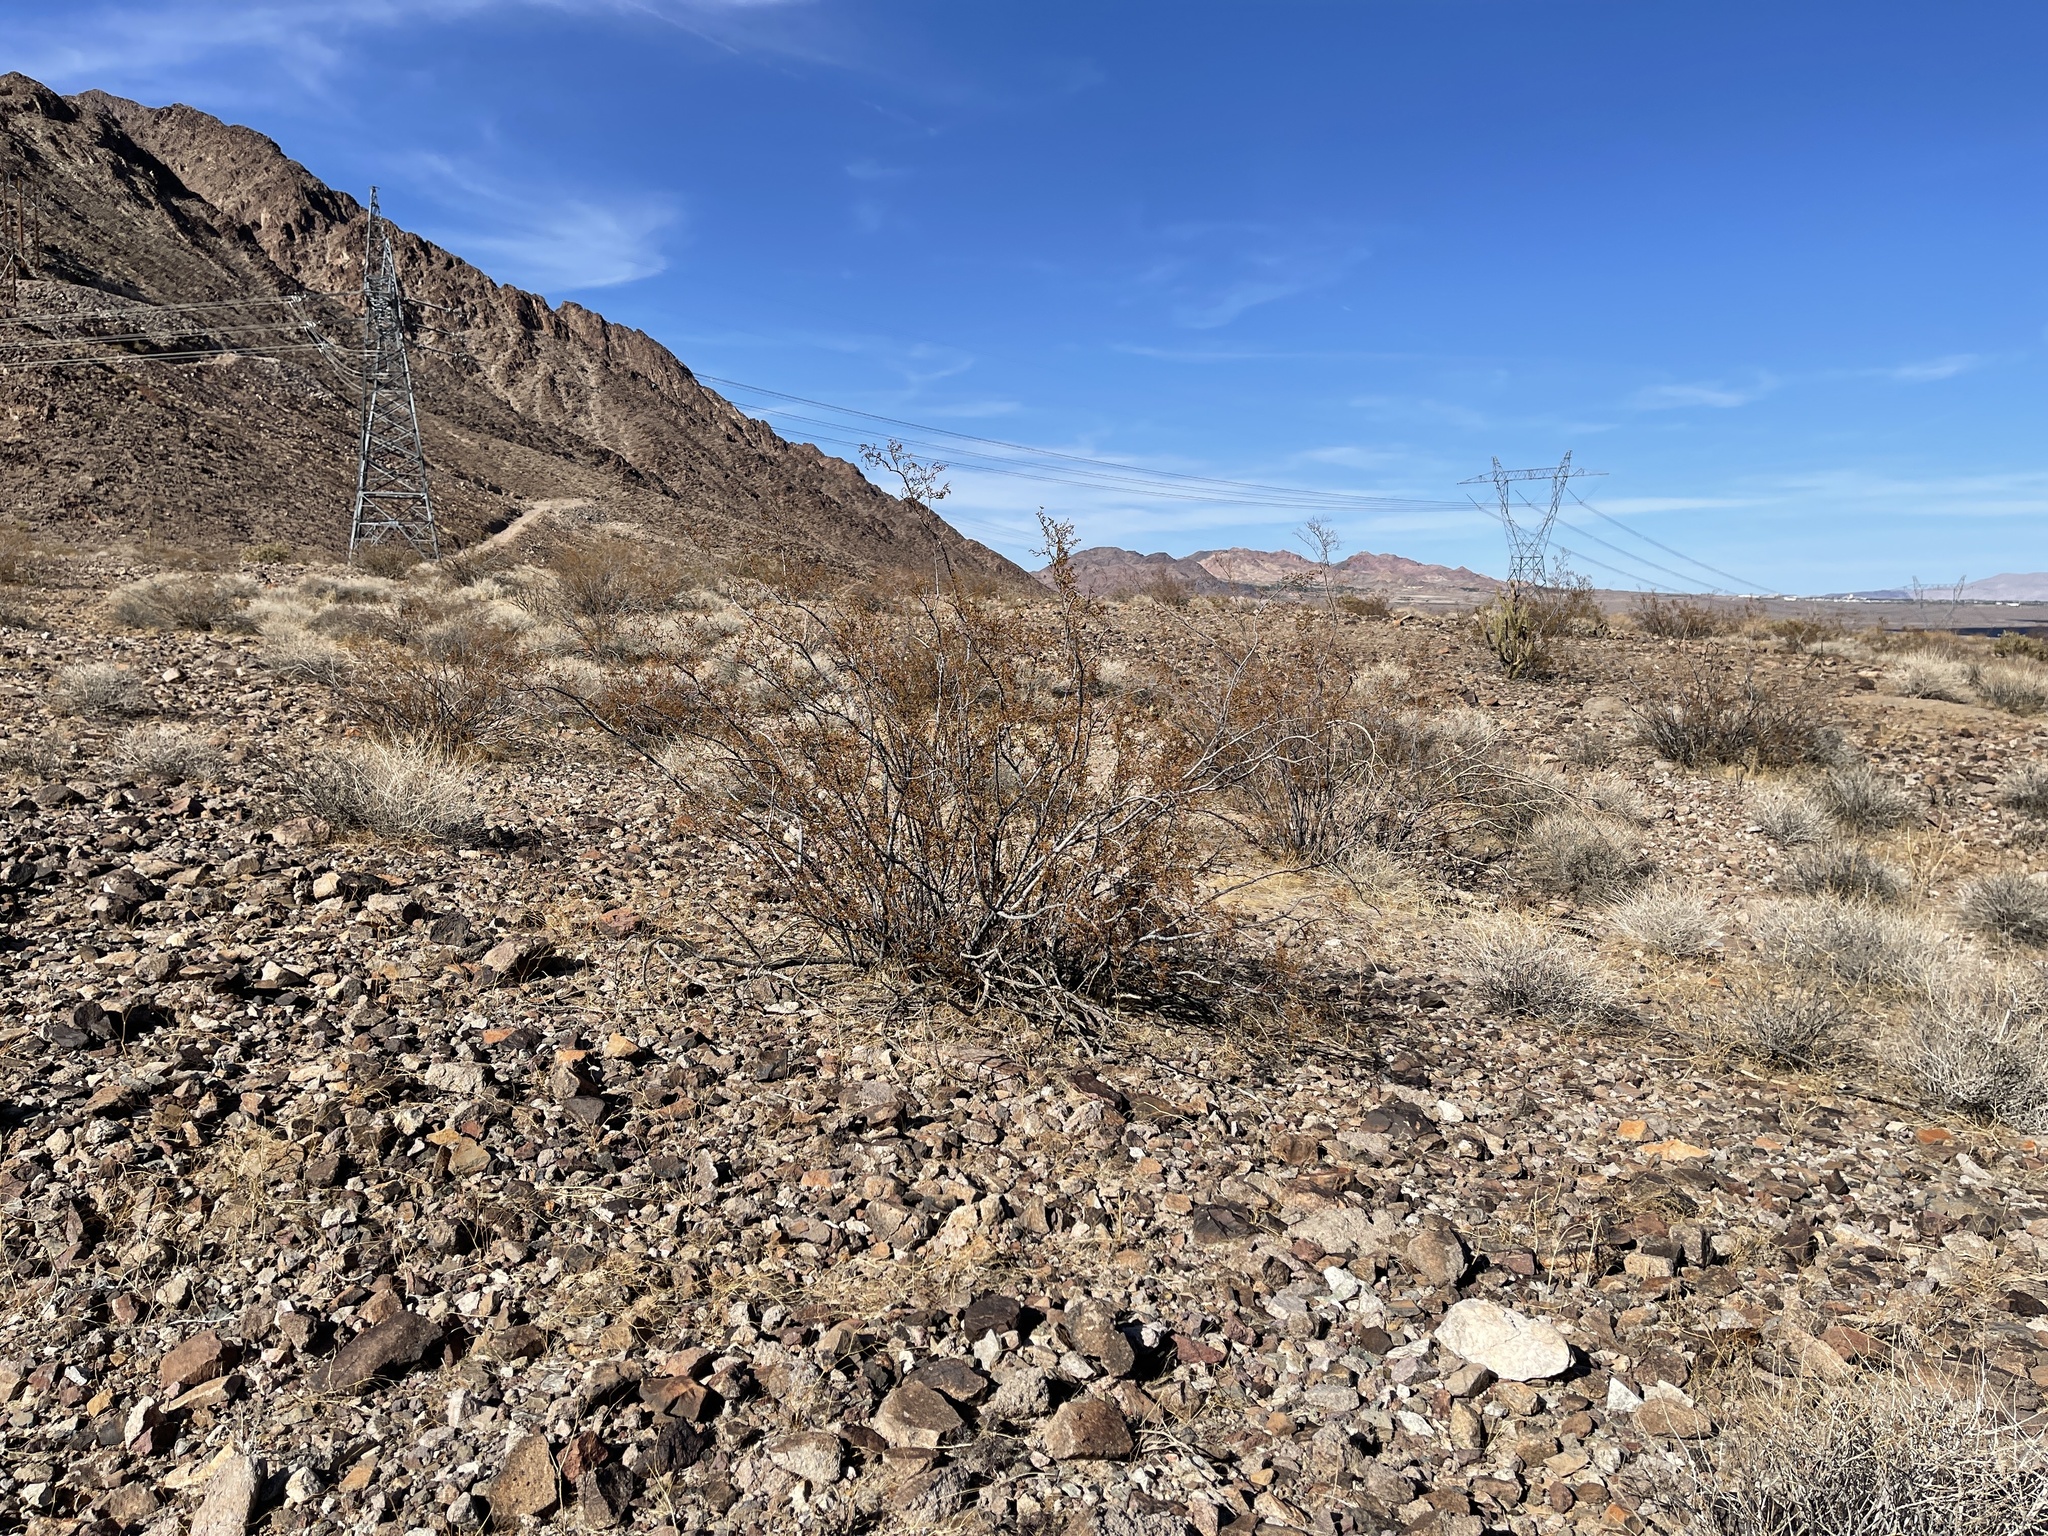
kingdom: Plantae
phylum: Tracheophyta
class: Magnoliopsida
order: Zygophyllales
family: Zygophyllaceae
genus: Larrea
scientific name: Larrea tridentata
